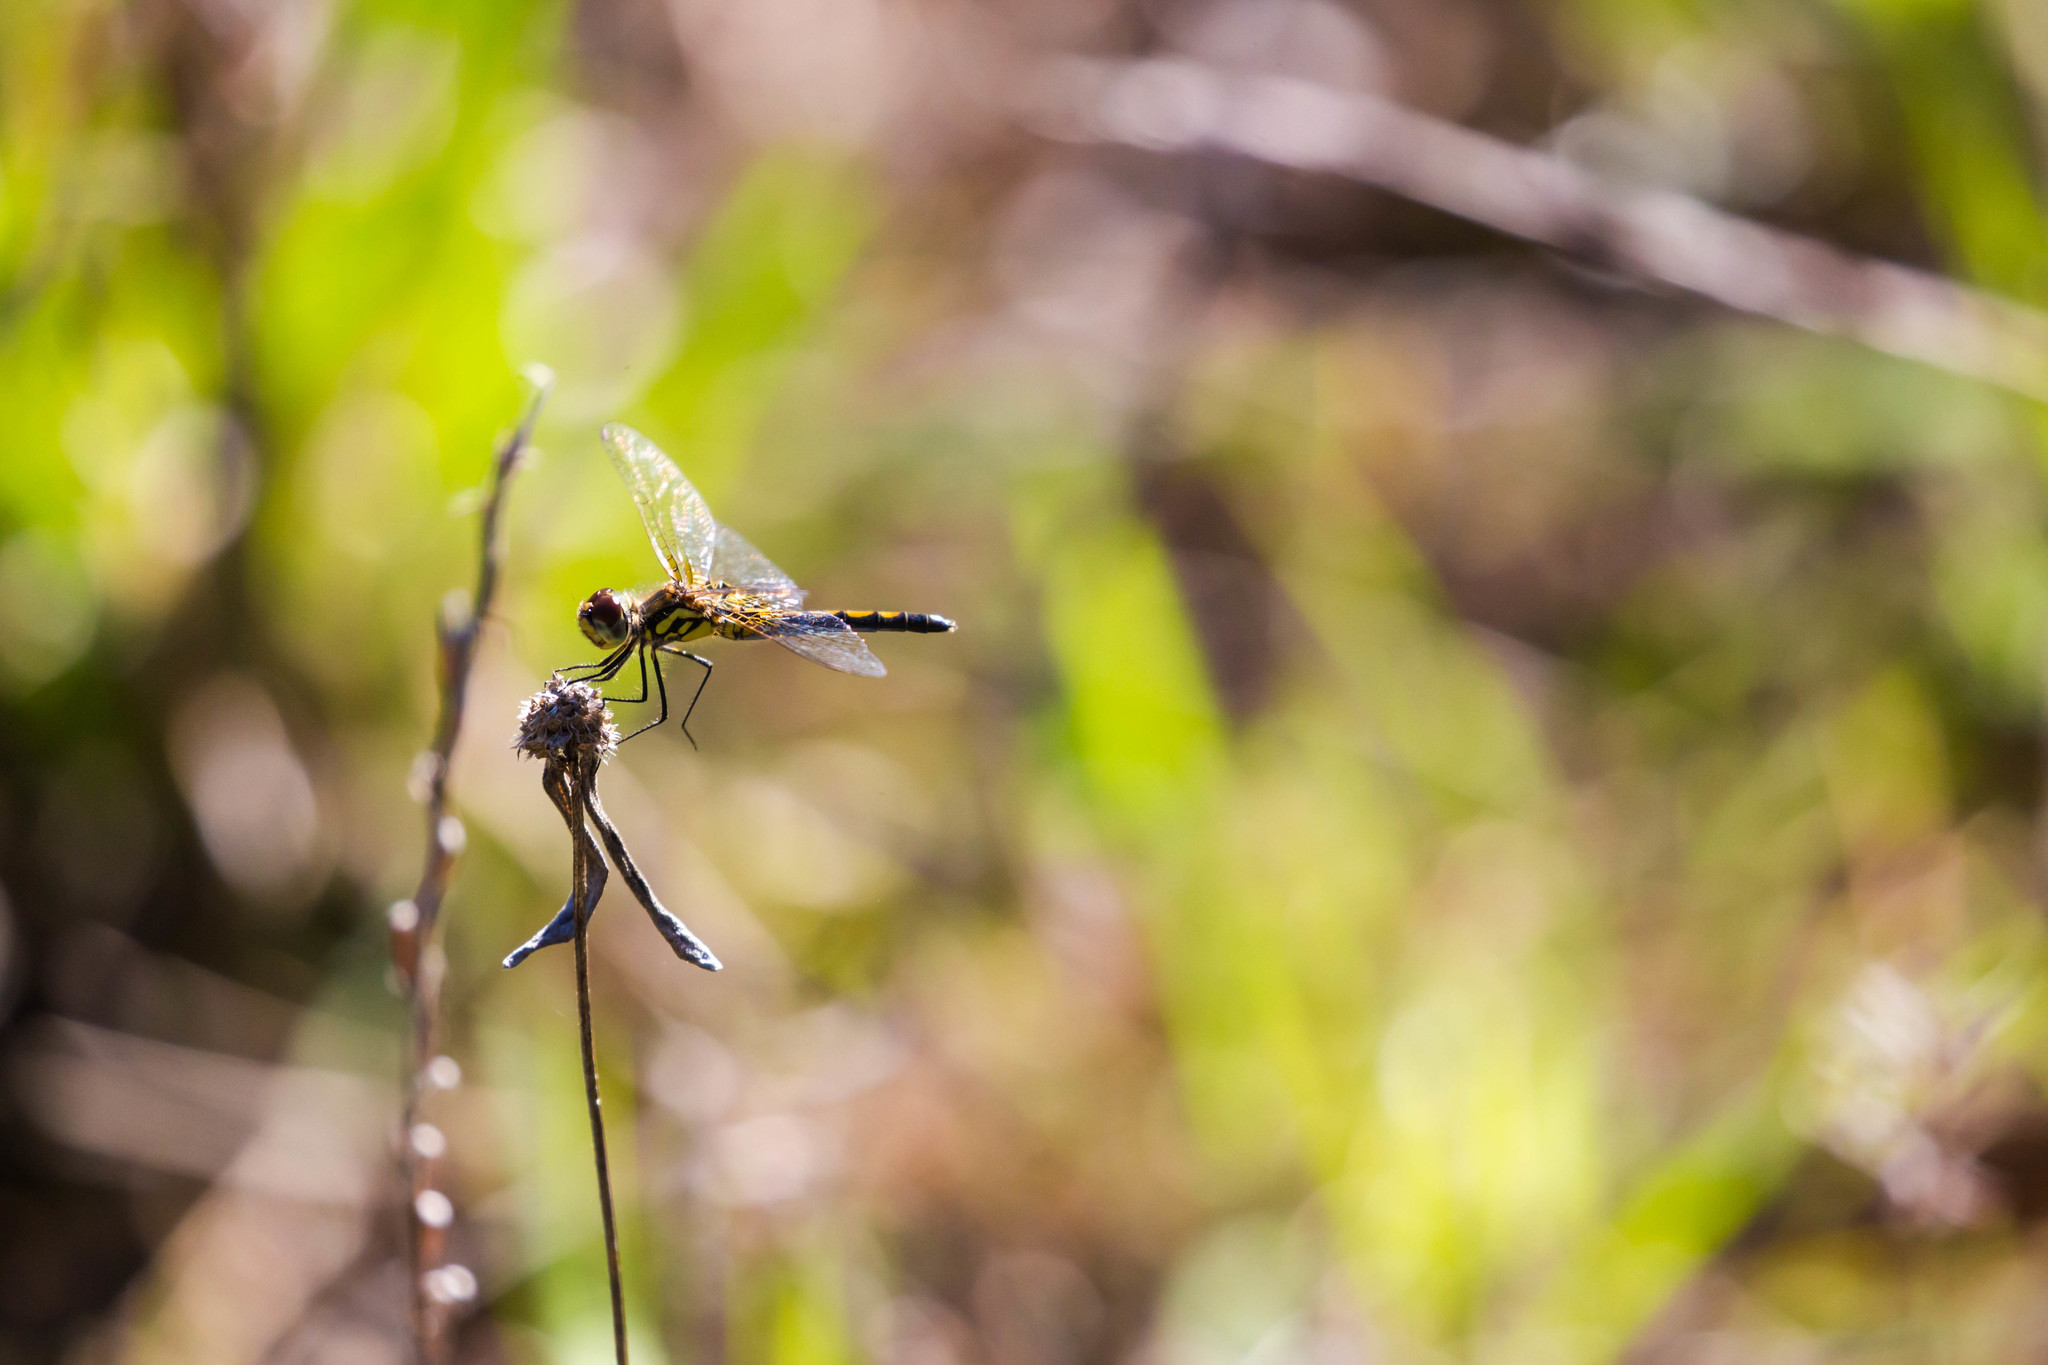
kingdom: Animalia
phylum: Arthropoda
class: Insecta
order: Odonata
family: Libellulidae
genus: Celithemis
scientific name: Celithemis ornata
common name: Ornate pennant
